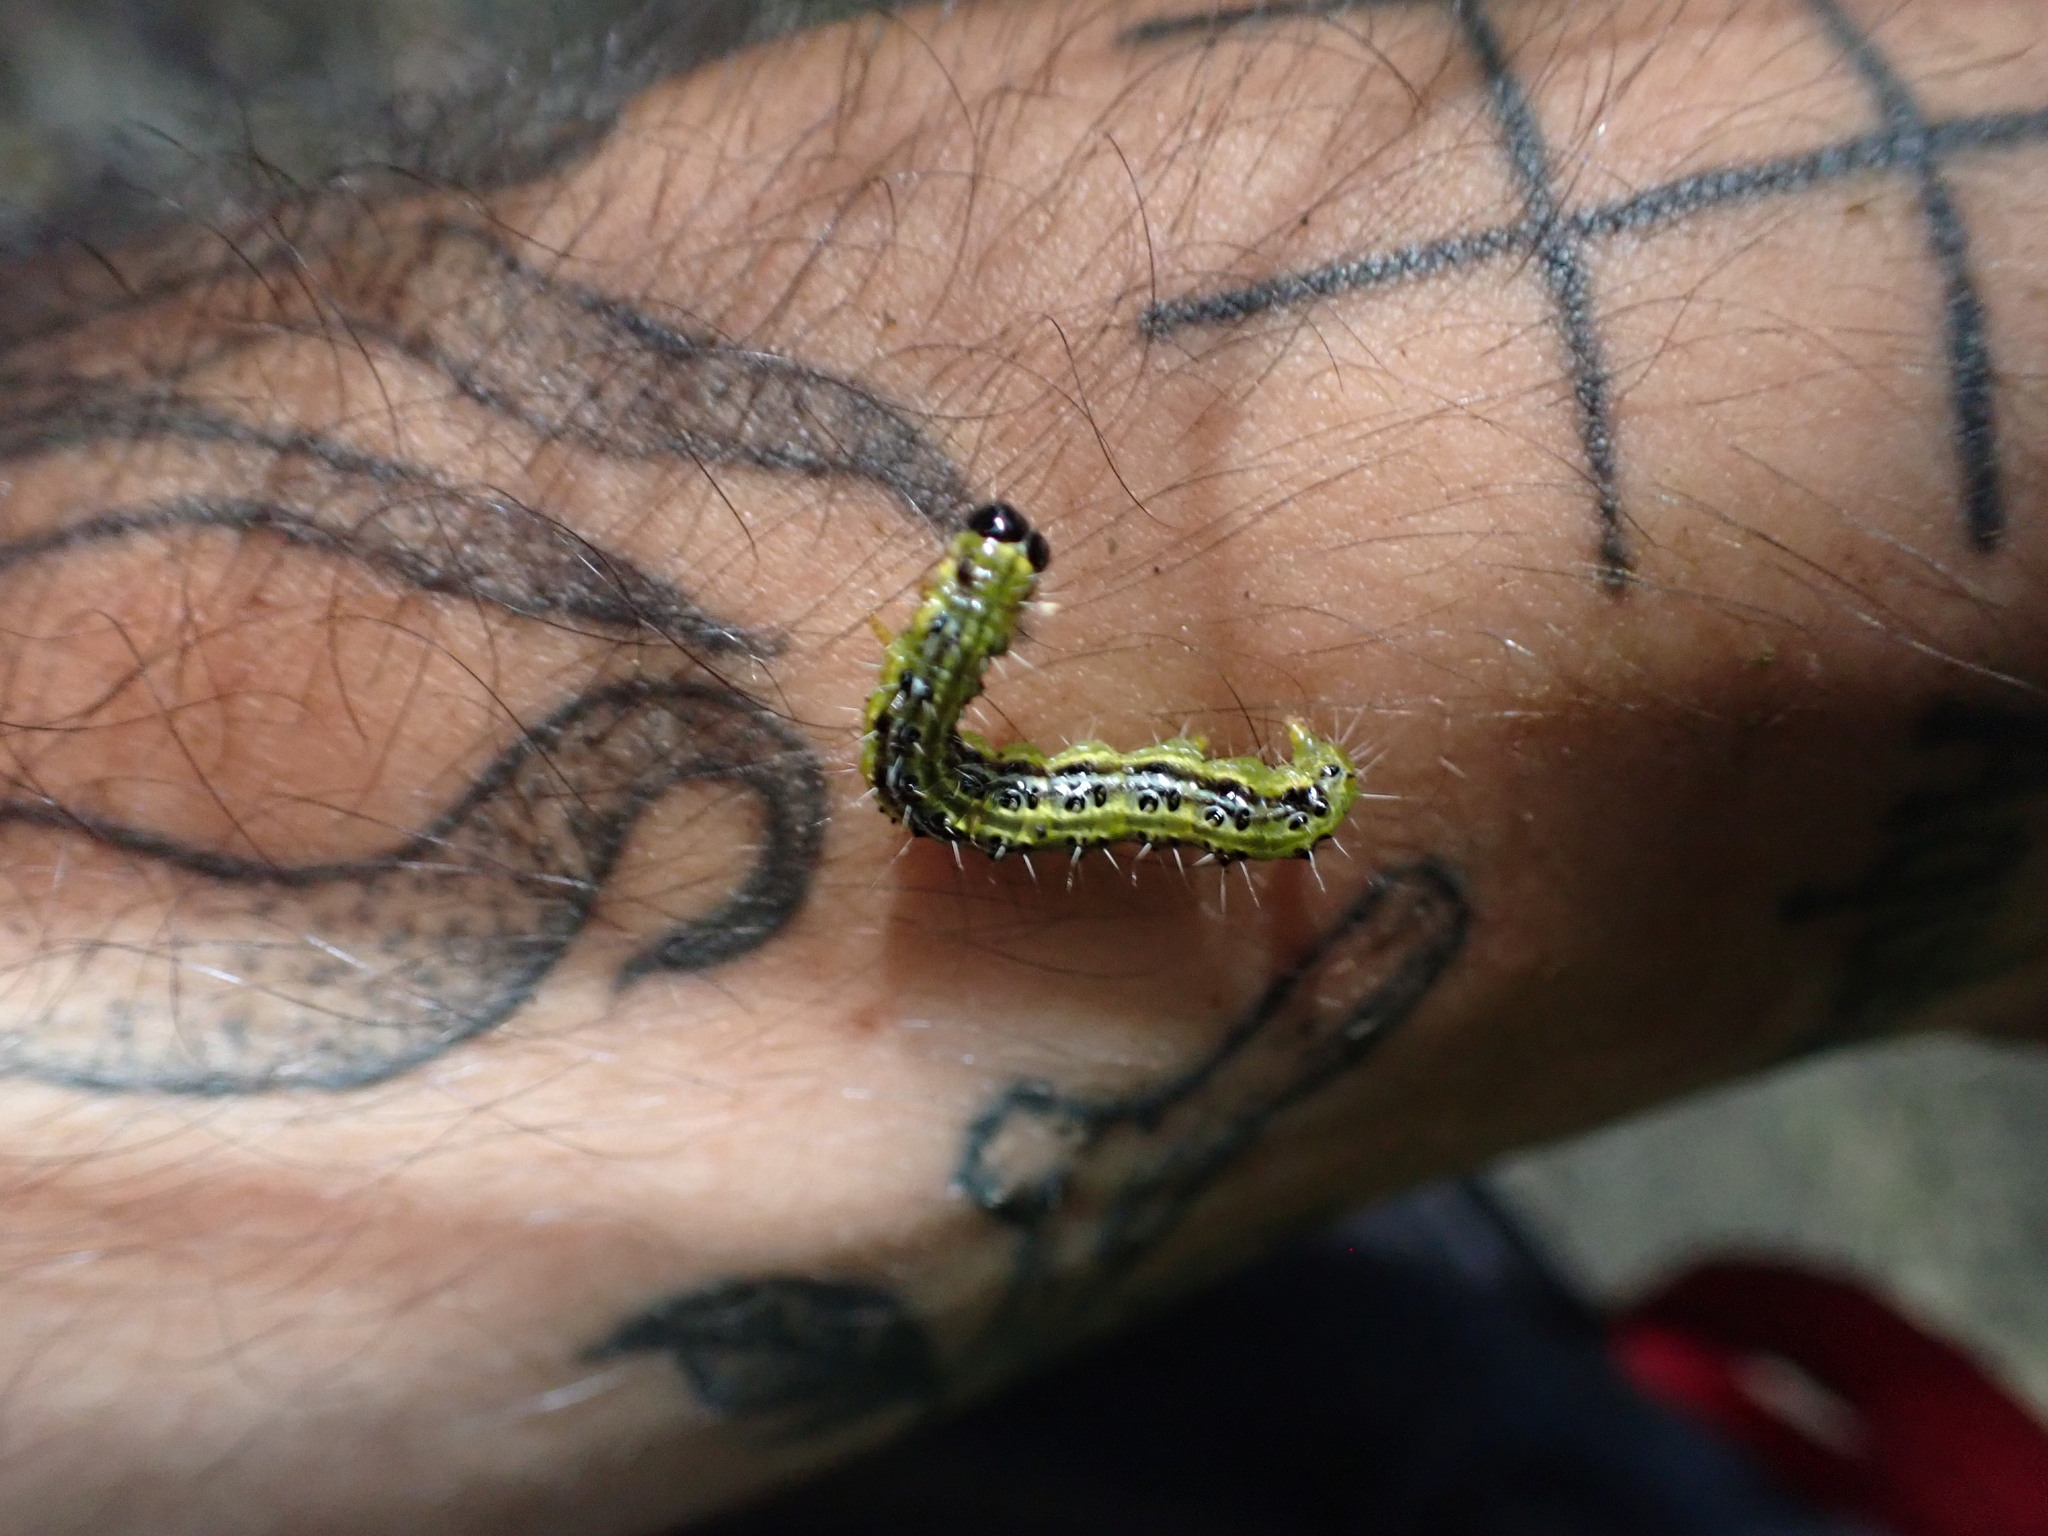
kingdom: Animalia
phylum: Arthropoda
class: Insecta
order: Lepidoptera
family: Crambidae
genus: Cydalima
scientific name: Cydalima perspectalis
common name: Box tree moth
